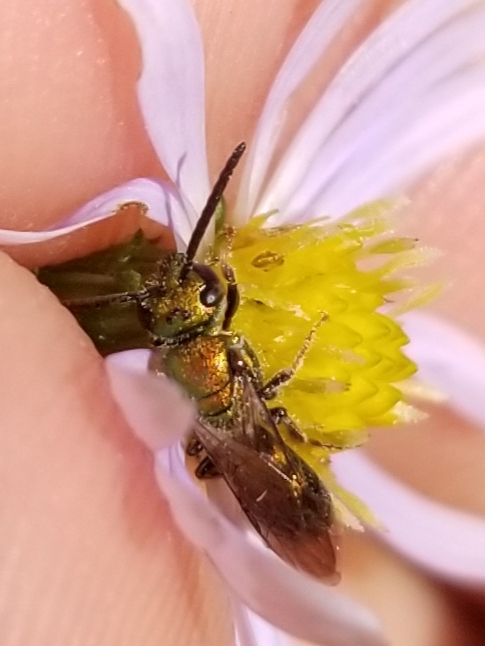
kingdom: Animalia
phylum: Arthropoda
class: Insecta
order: Hymenoptera
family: Halictidae
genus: Augochlora
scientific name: Augochlora pura
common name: Pure green sweat bee
